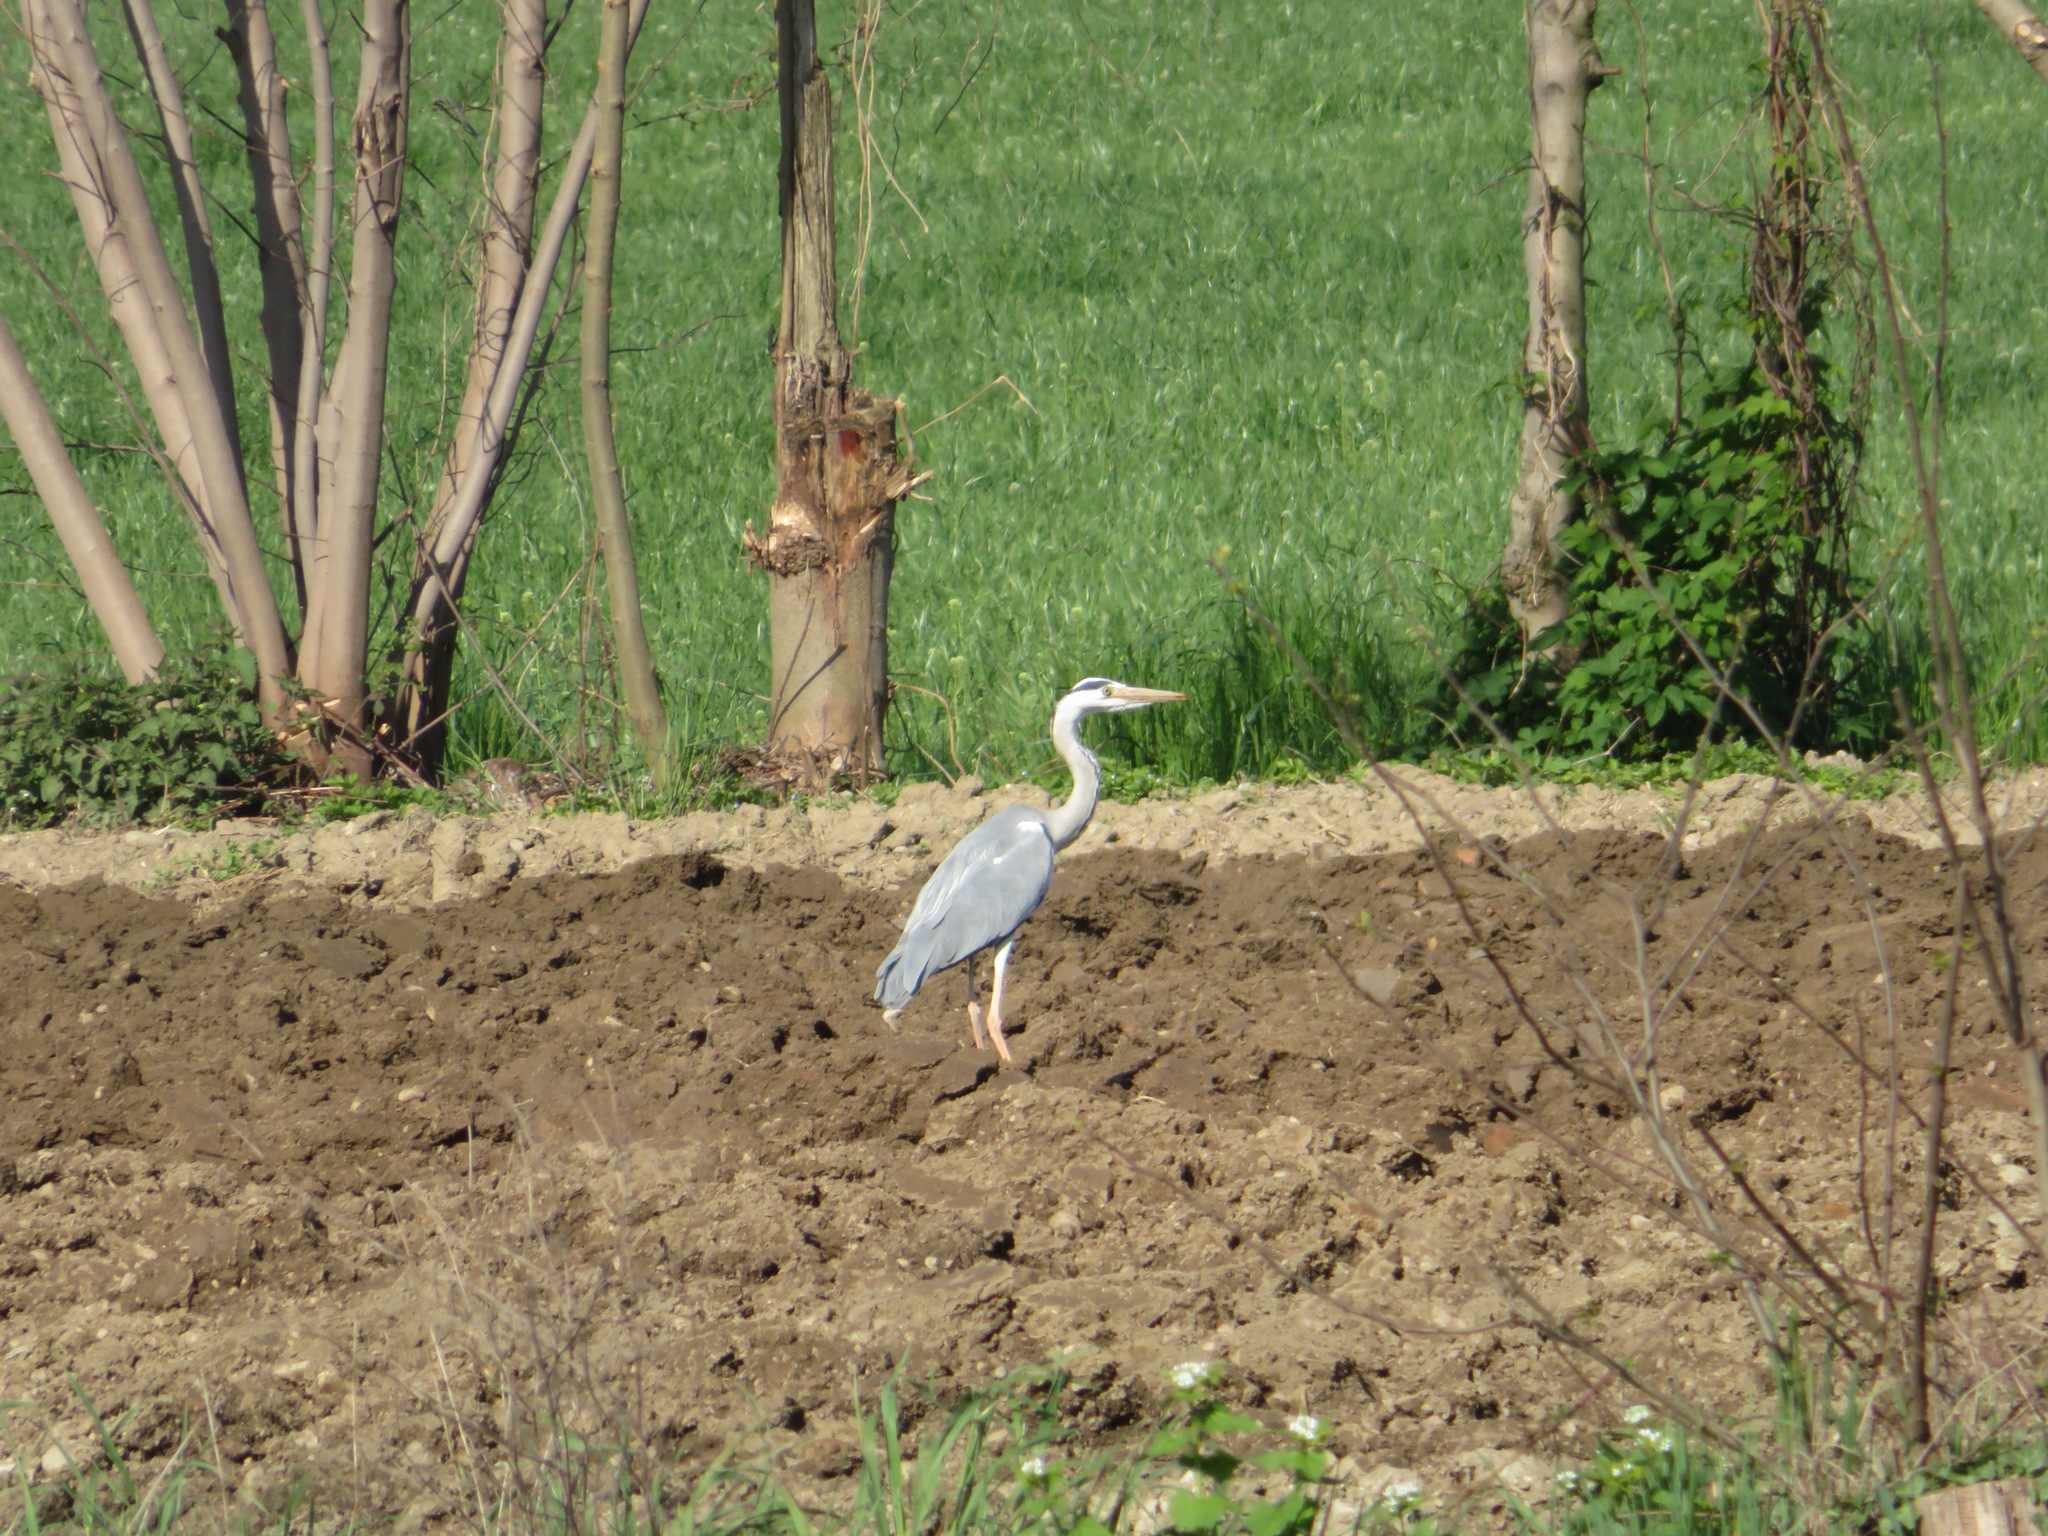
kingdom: Animalia
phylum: Chordata
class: Aves
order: Pelecaniformes
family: Ardeidae
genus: Ardea
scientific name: Ardea cinerea
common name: Grey heron
